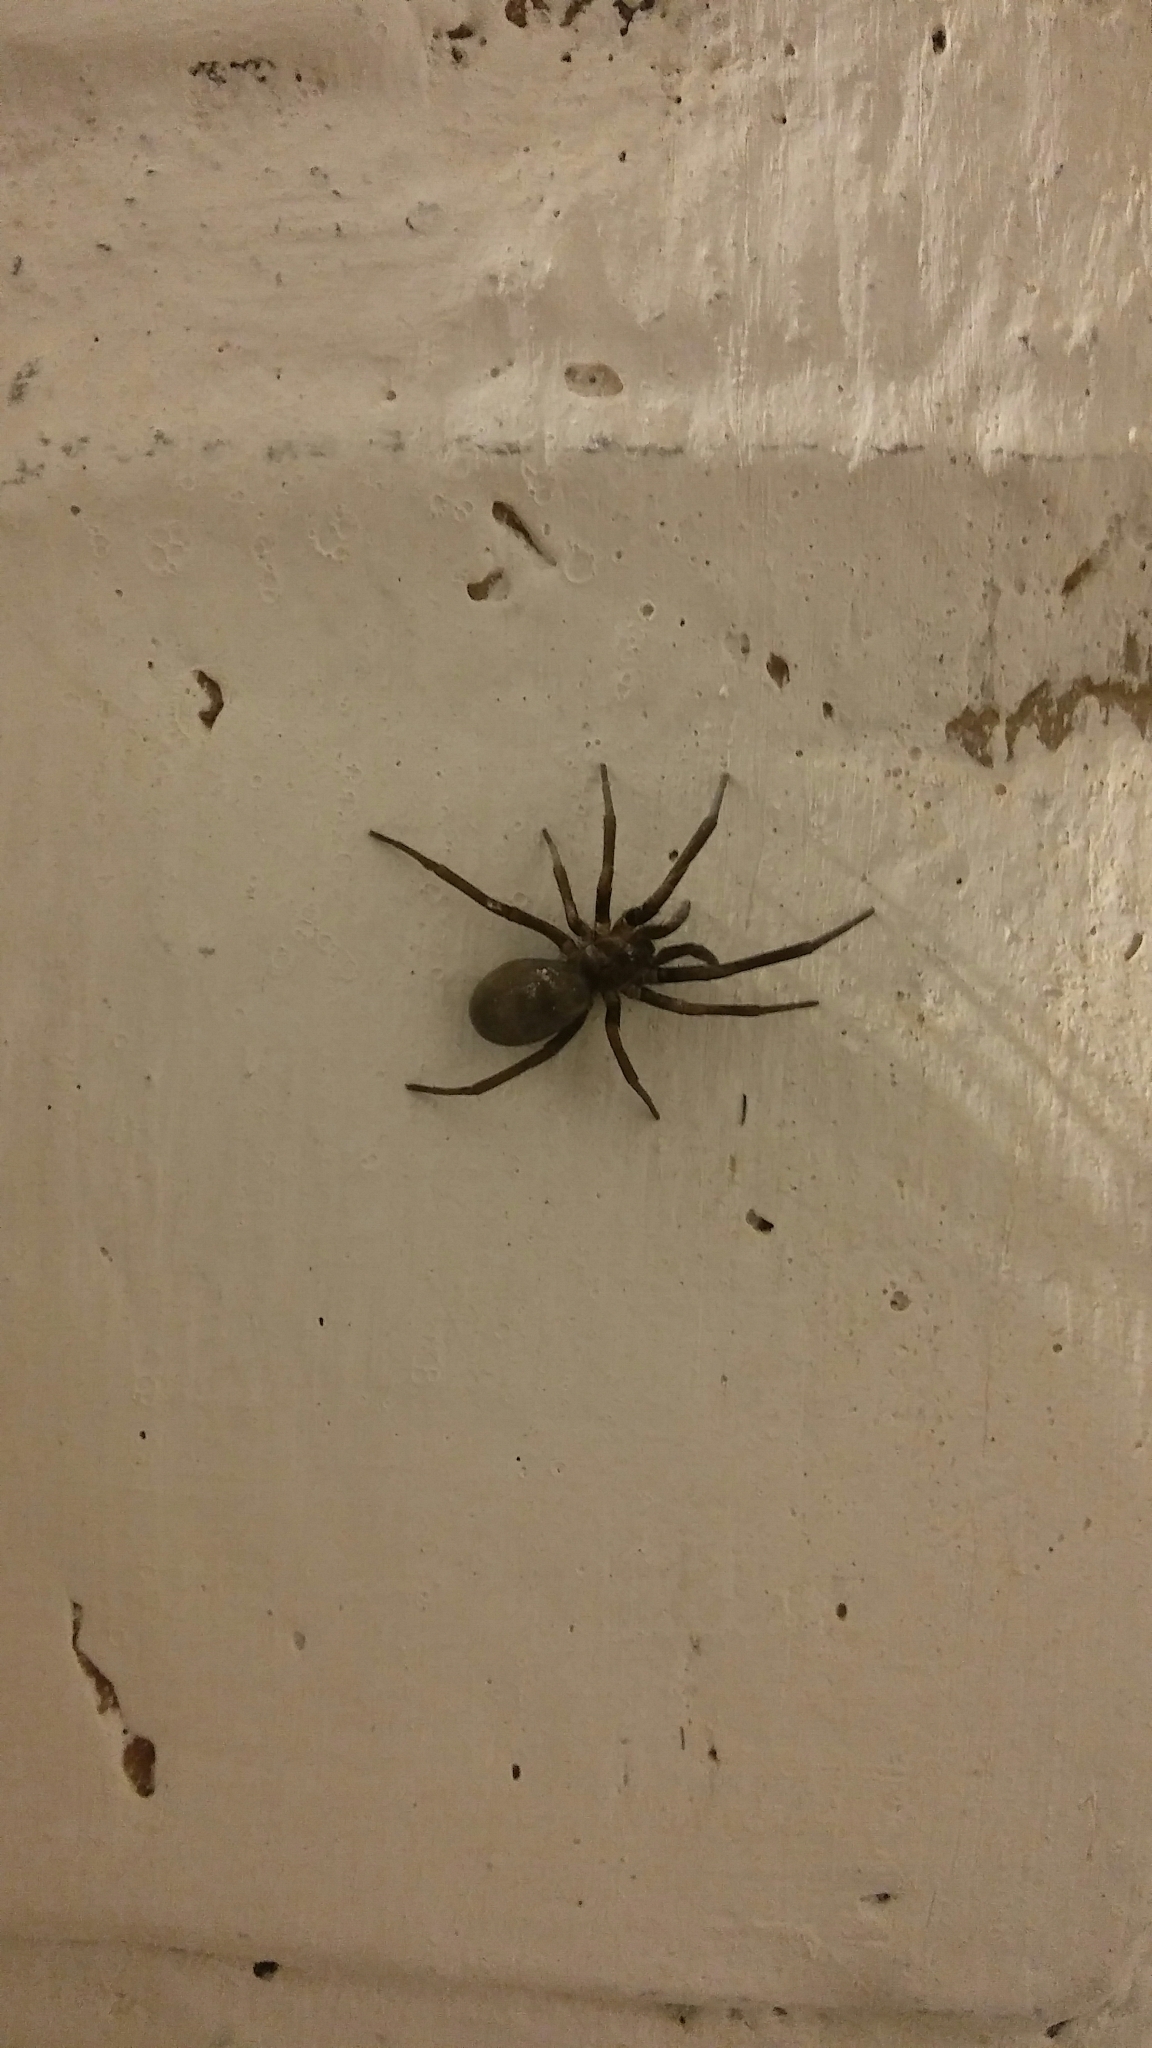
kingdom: Animalia
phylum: Arthropoda
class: Arachnida
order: Araneae
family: Filistatidae
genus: Kukulcania
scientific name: Kukulcania hibernalis
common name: Crevice weaver
